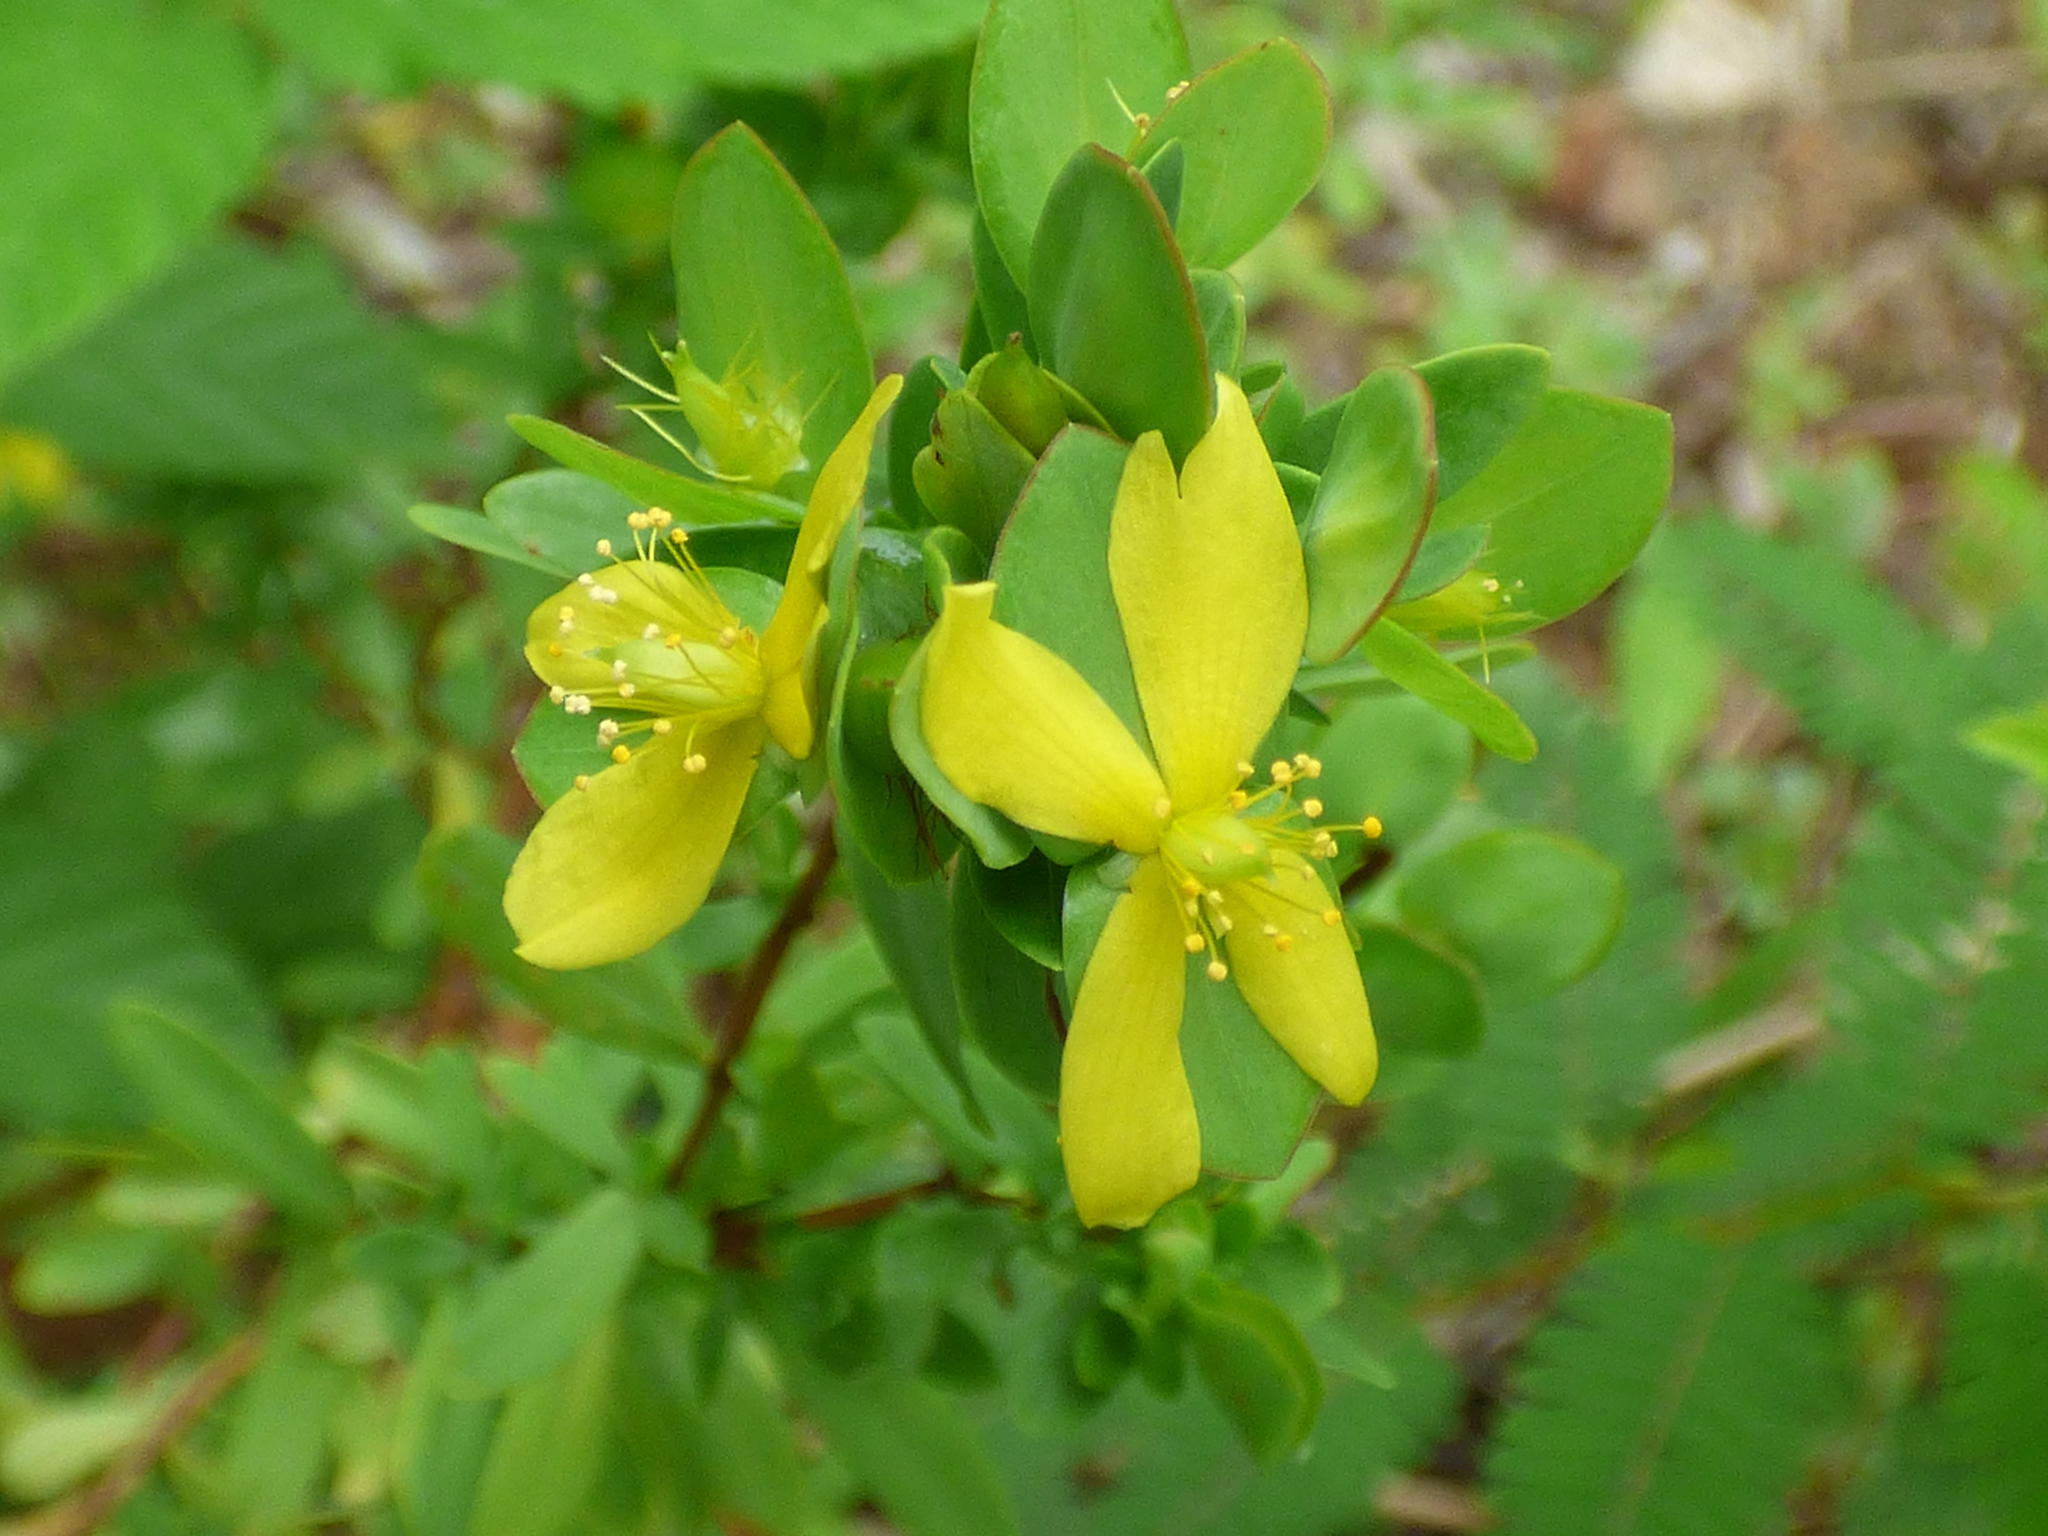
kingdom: Plantae
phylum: Tracheophyta
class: Magnoliopsida
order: Malpighiales
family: Hypericaceae
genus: Hypericum
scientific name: Hypericum hypericoides
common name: St. andrew's cross
